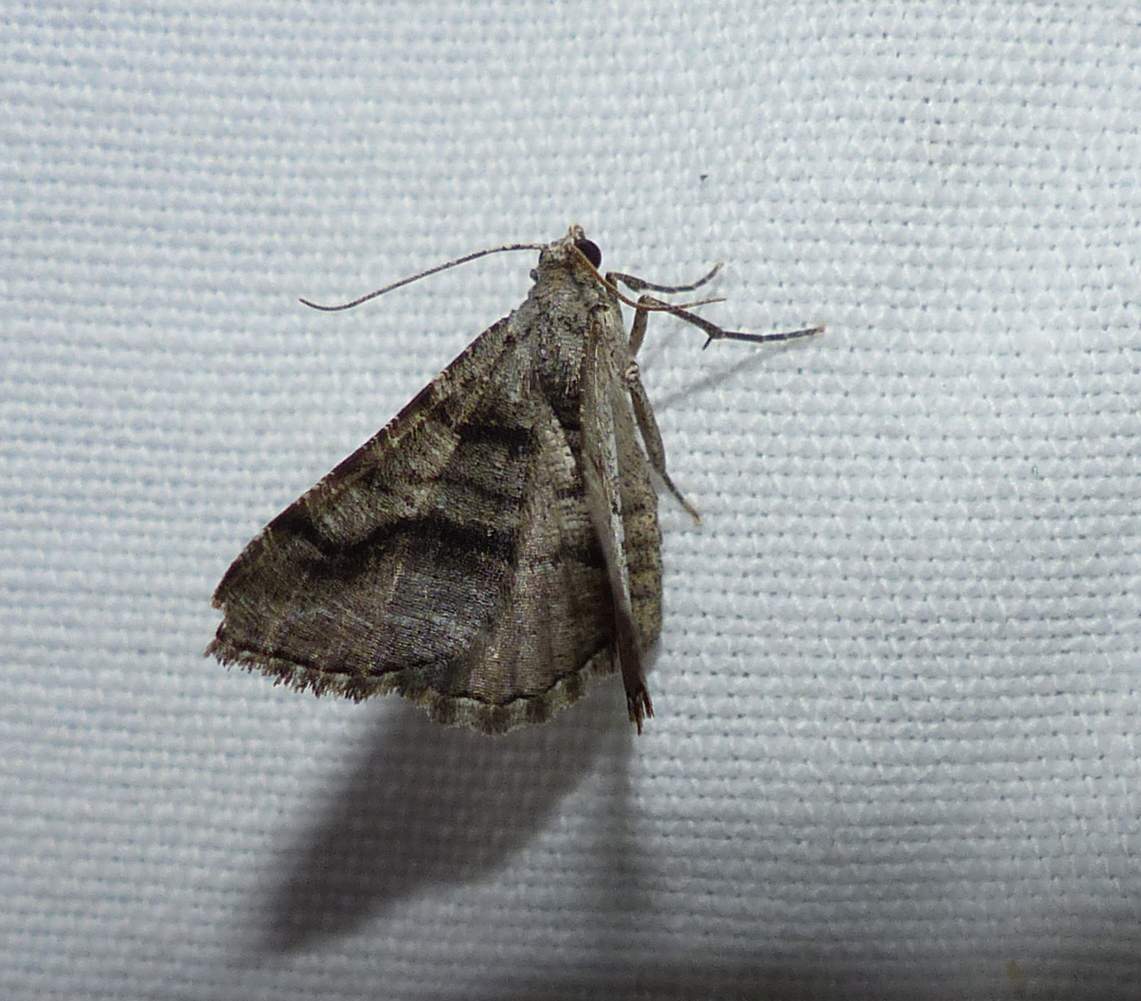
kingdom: Animalia
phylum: Arthropoda
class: Insecta
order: Lepidoptera
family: Geometridae
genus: Digrammia
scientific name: Digrammia continuata
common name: Curve-lined angle
